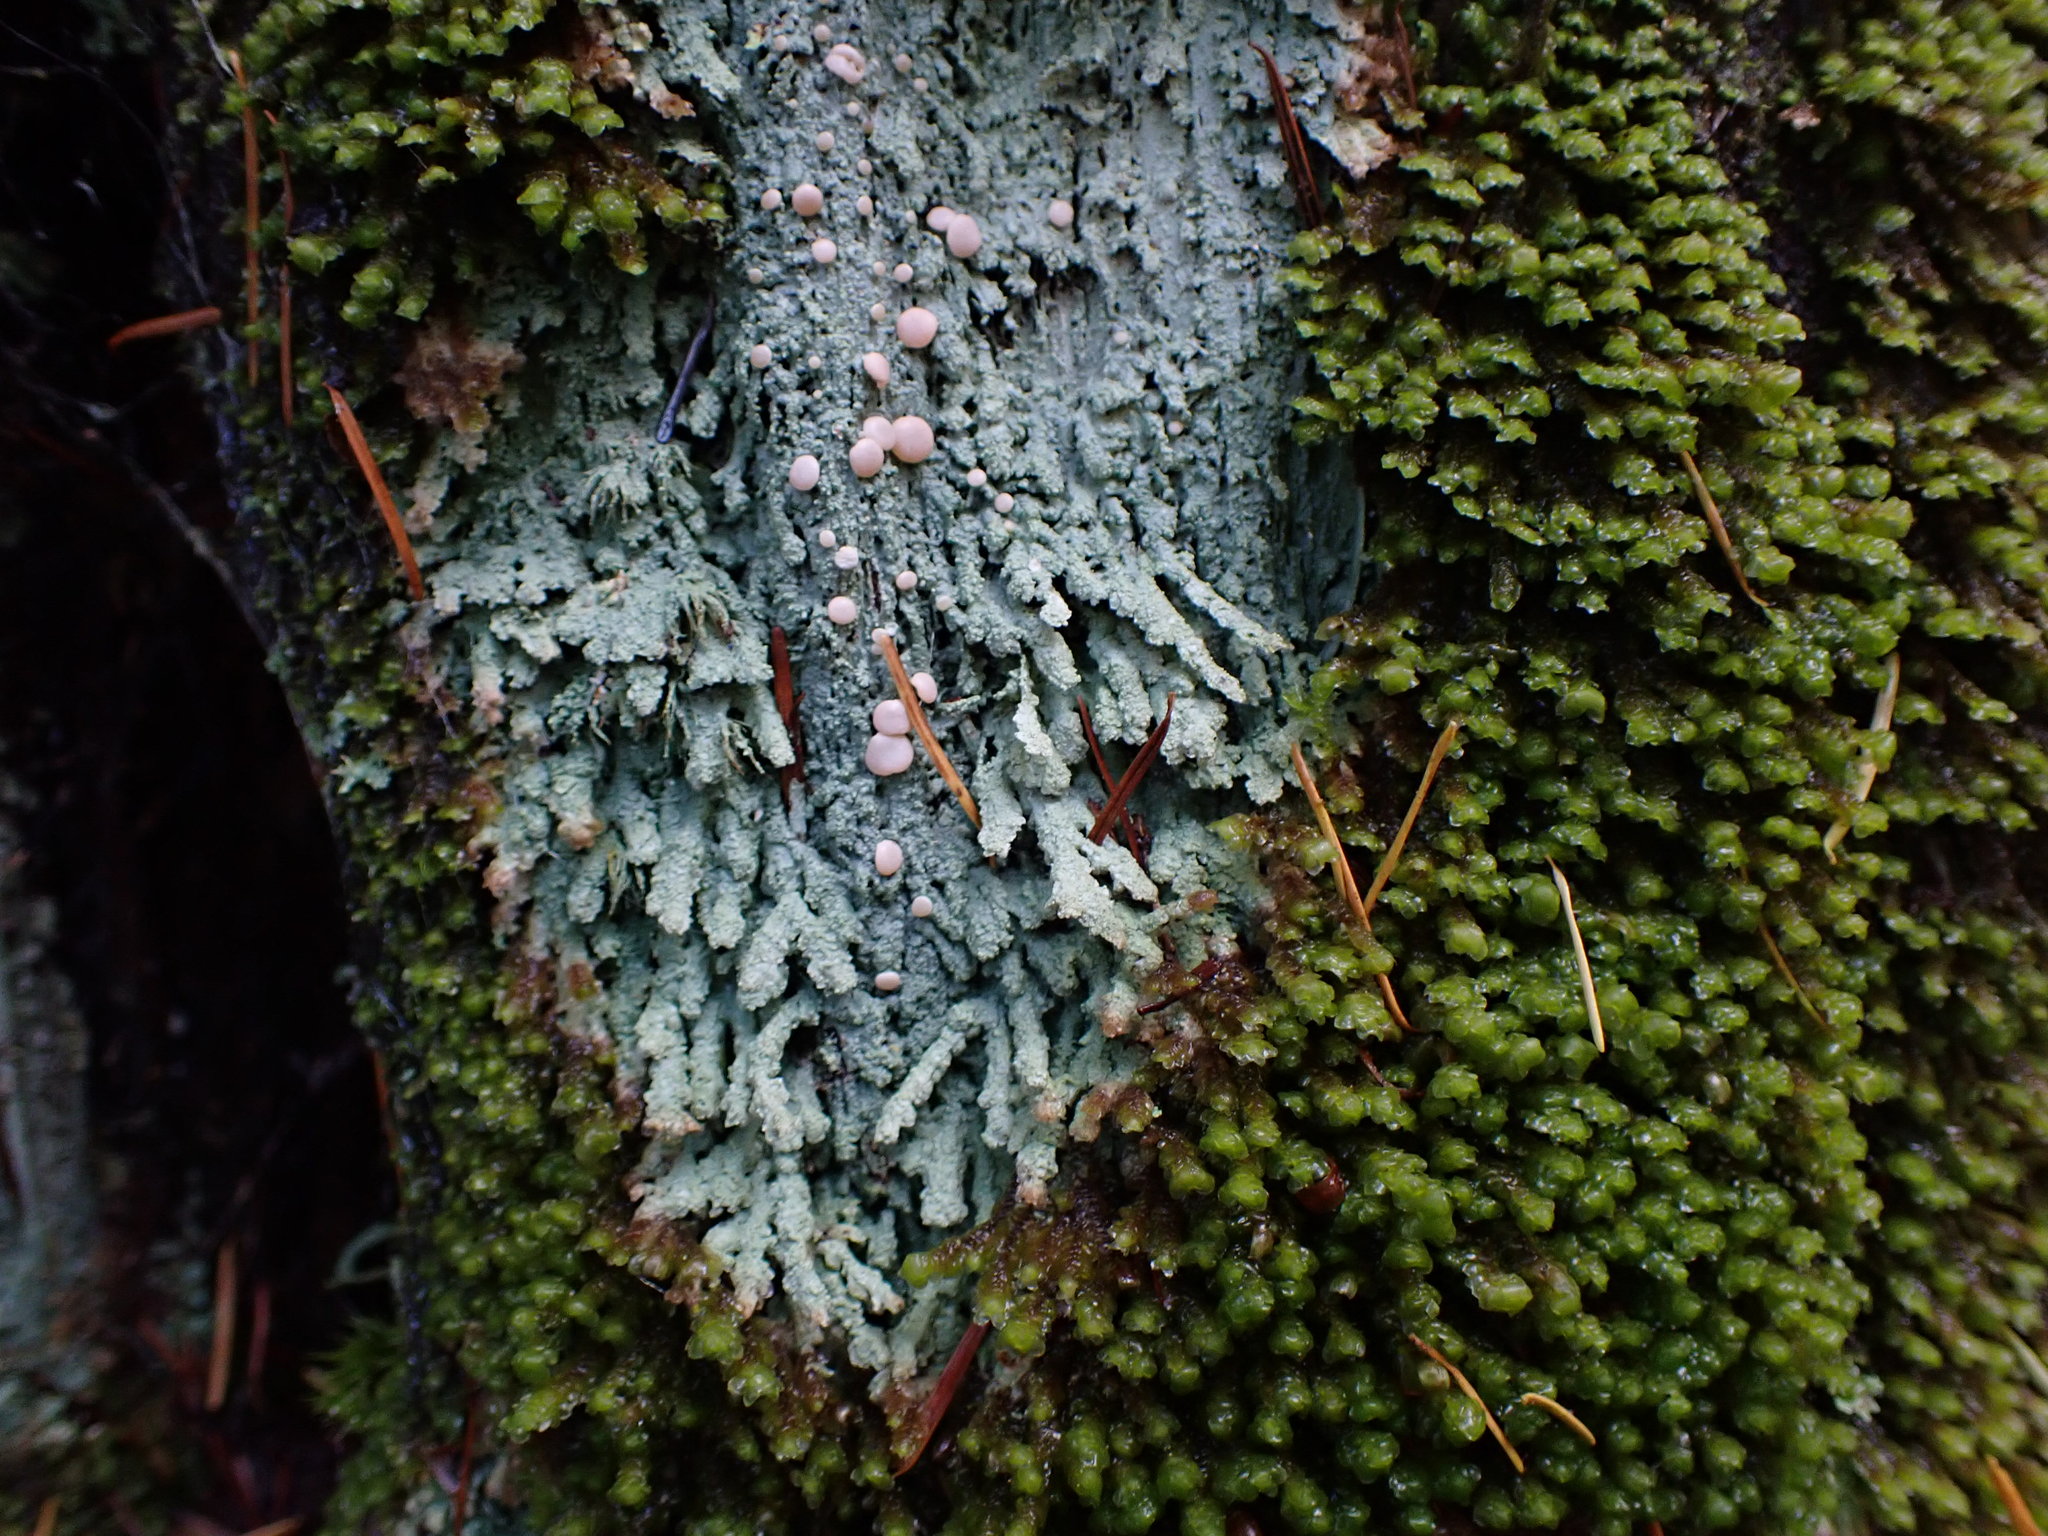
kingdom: Fungi
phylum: Ascomycota
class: Lecanoromycetes
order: Pertusariales
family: Icmadophilaceae
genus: Icmadophila
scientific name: Icmadophila ericetorum
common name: Candy lichen
